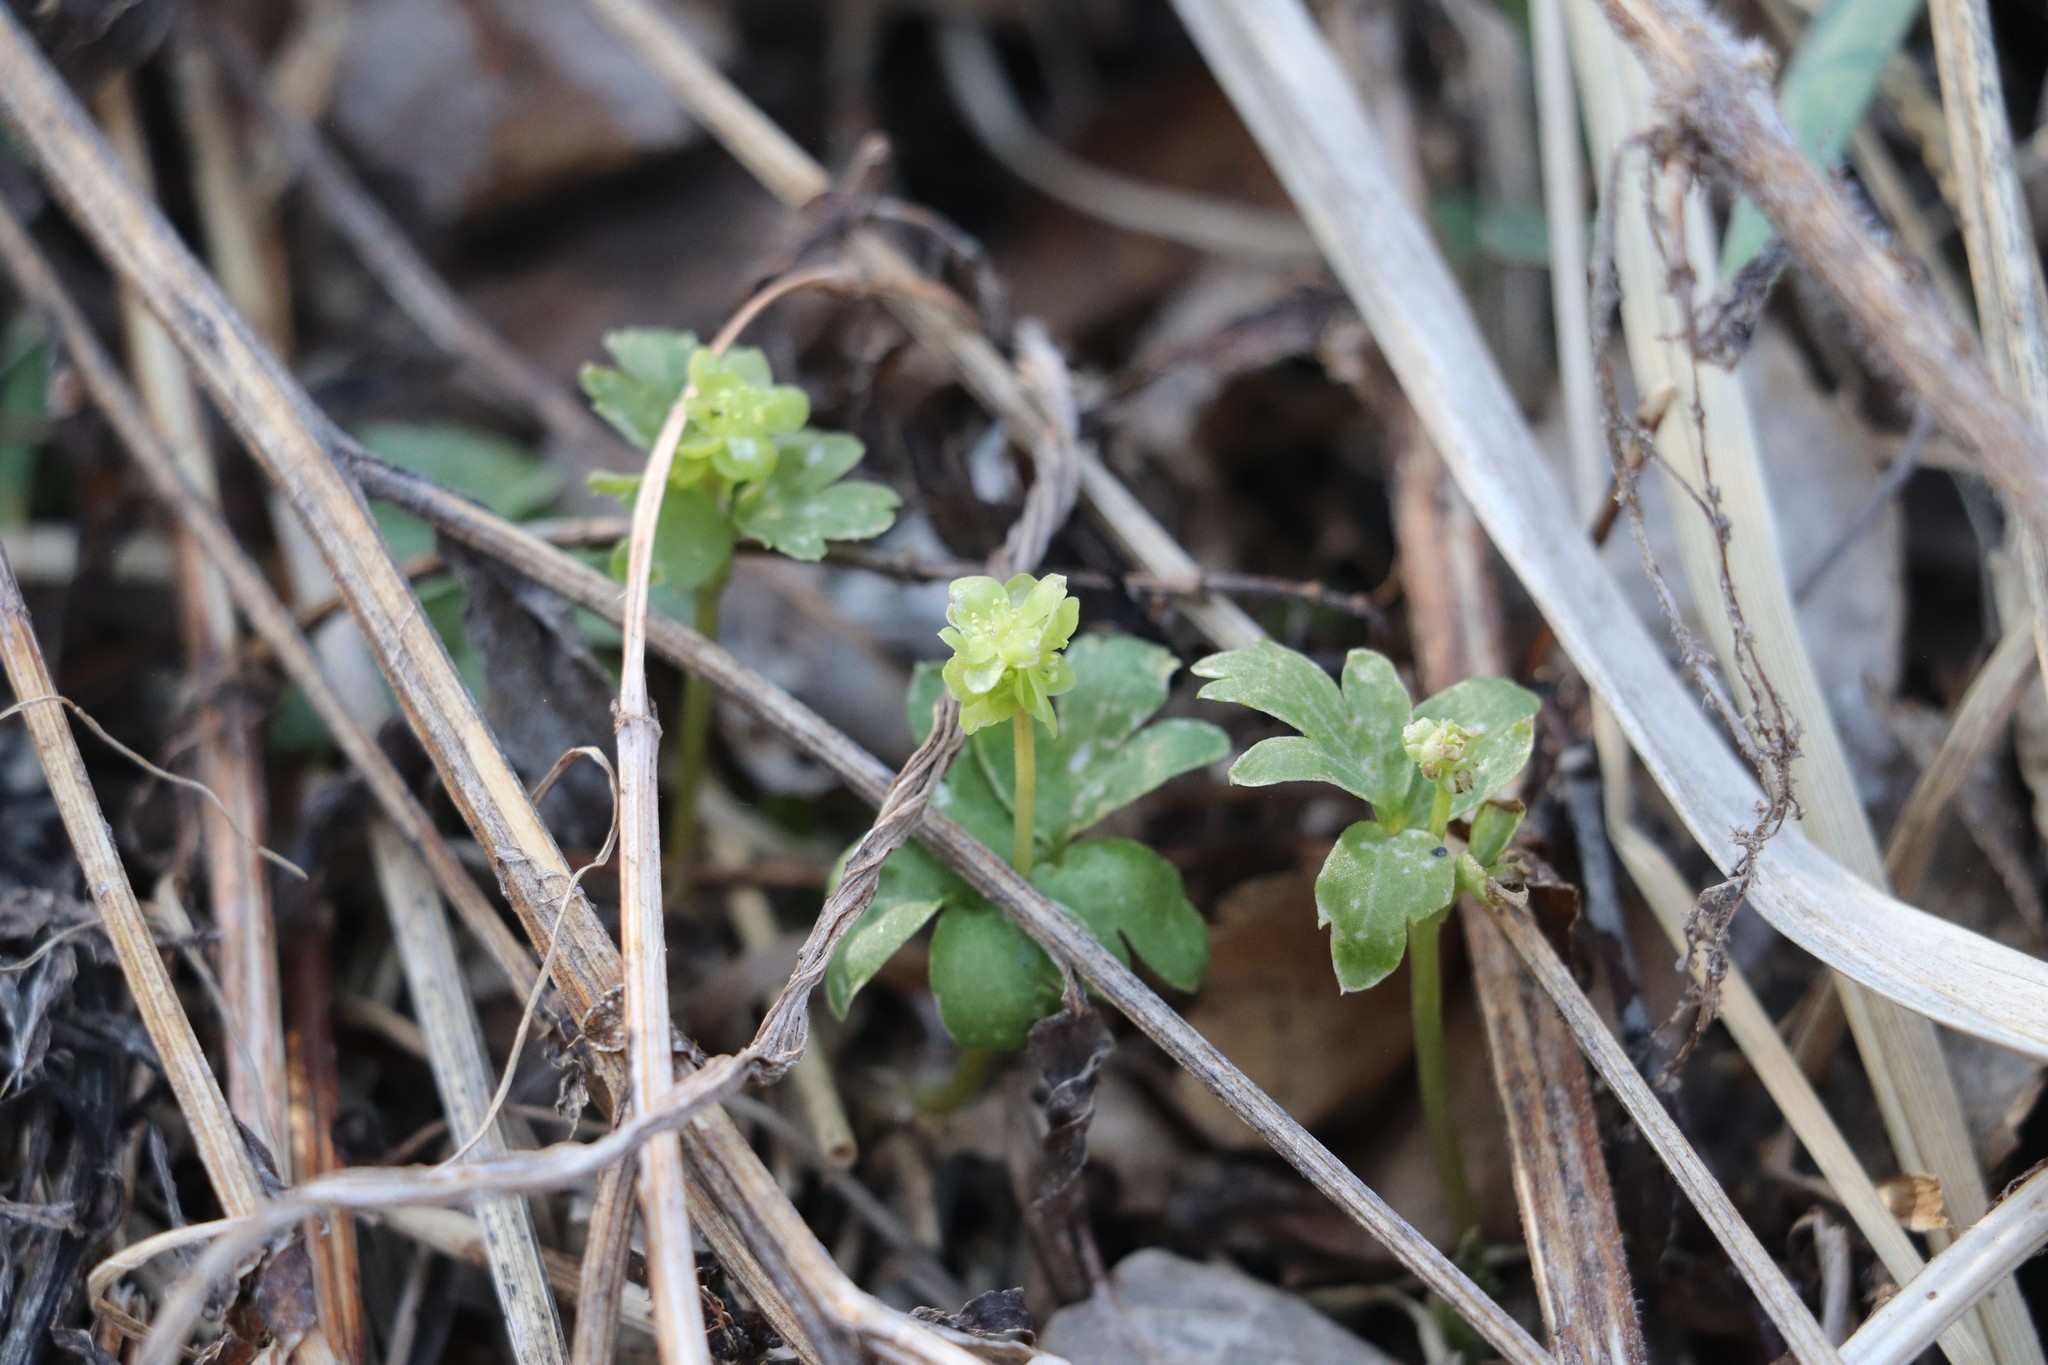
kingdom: Plantae
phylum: Tracheophyta
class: Magnoliopsida
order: Dipsacales
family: Viburnaceae
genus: Adoxa
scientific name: Adoxa moschatellina
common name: Moschatel
